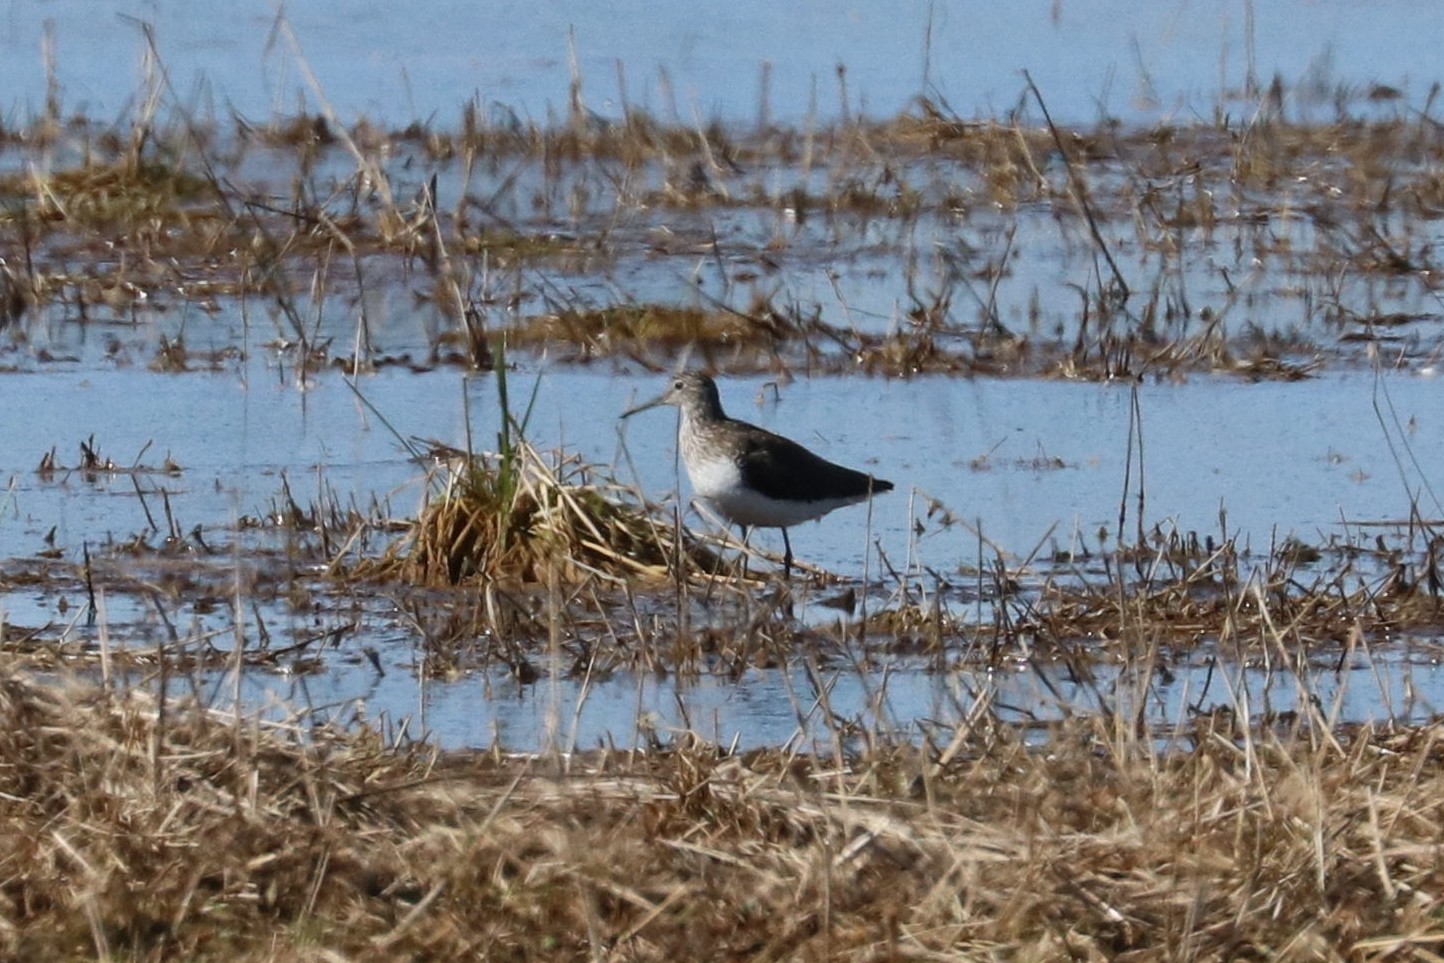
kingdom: Animalia
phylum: Chordata
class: Aves
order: Charadriiformes
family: Scolopacidae
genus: Tringa
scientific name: Tringa ochropus
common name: Green sandpiper
